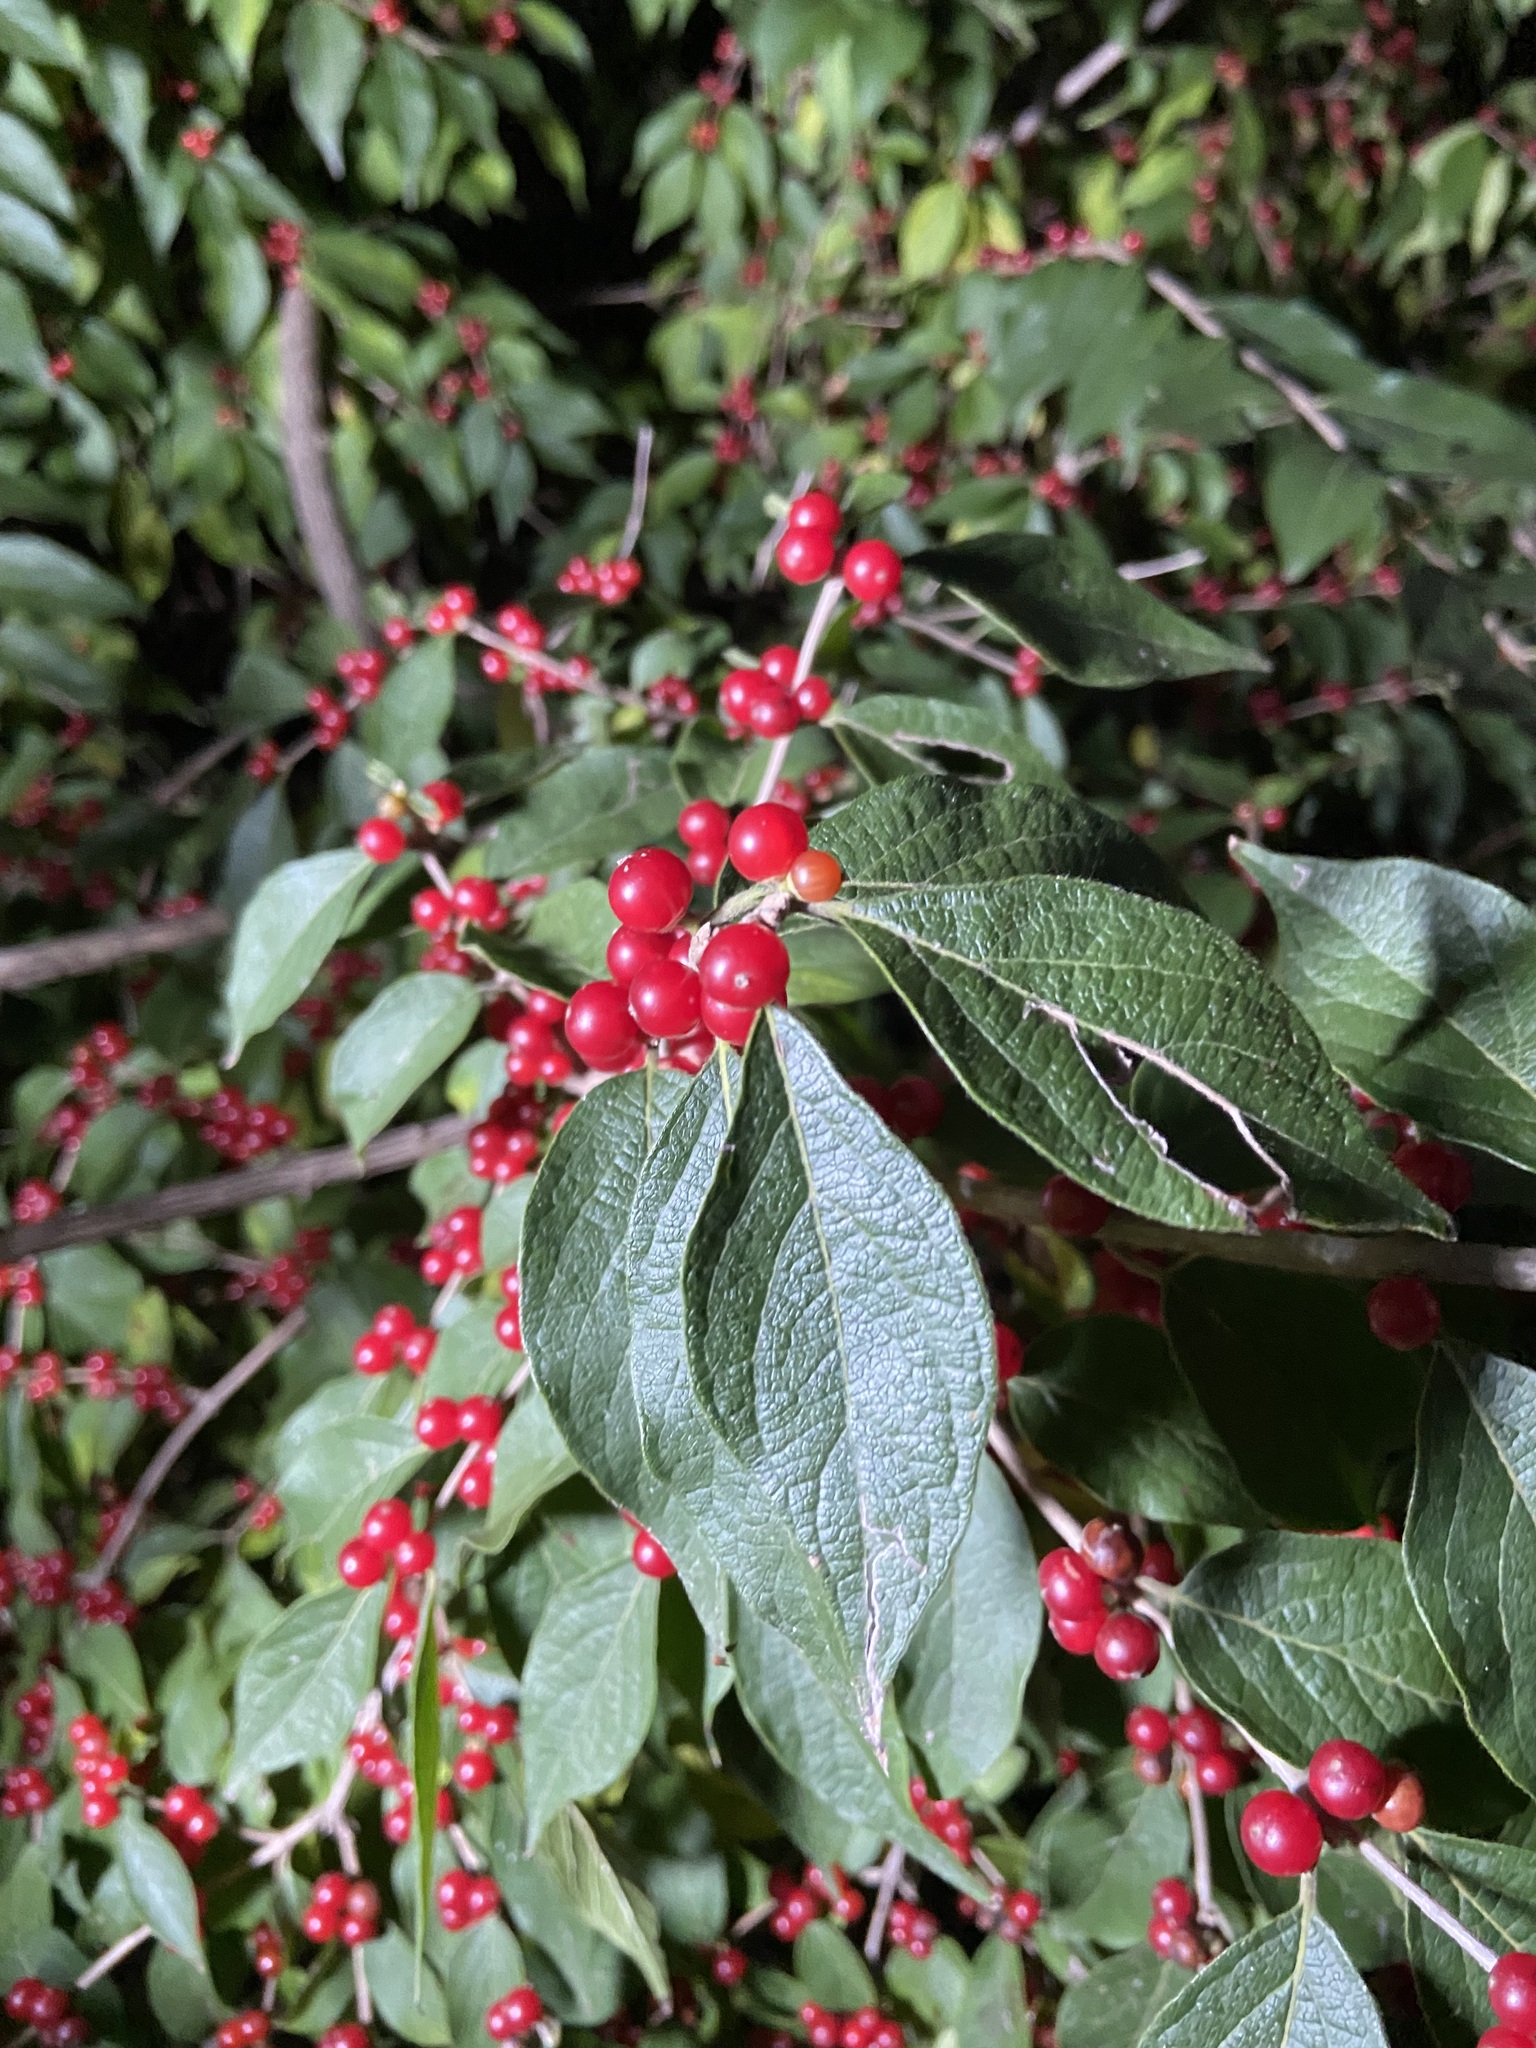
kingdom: Plantae
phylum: Tracheophyta
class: Magnoliopsida
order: Dipsacales
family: Caprifoliaceae
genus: Lonicera
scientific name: Lonicera maackii
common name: Amur honeysuckle
